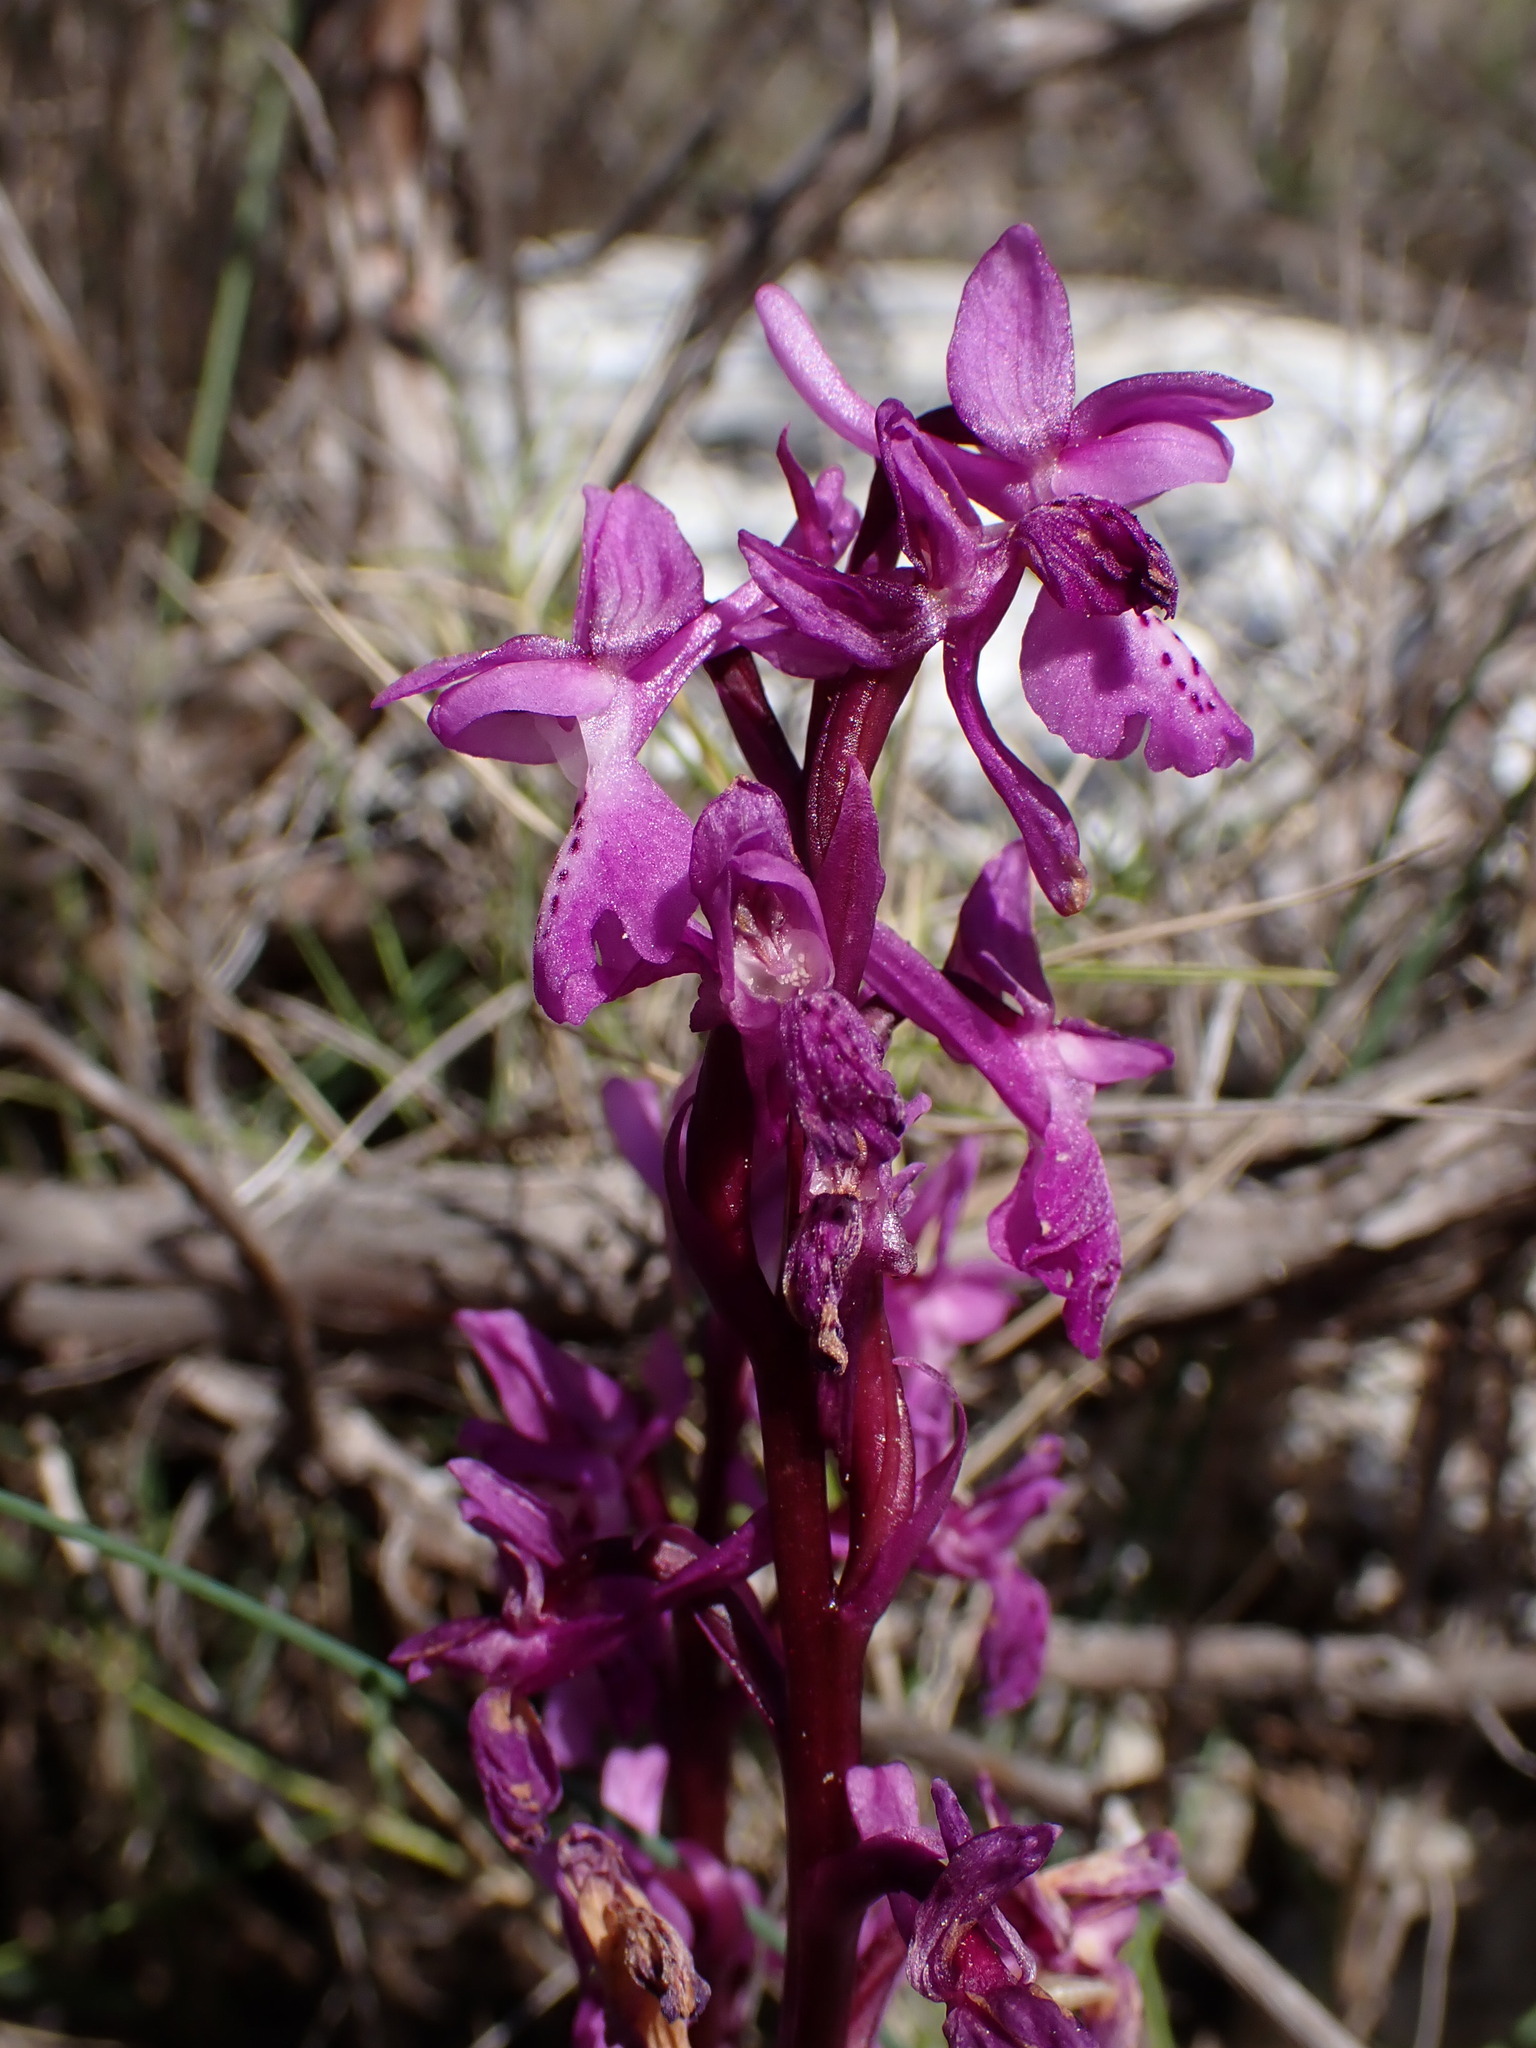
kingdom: Plantae
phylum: Tracheophyta
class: Liliopsida
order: Asparagales
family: Orchidaceae
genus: Orchis
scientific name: Orchis olbiensis
